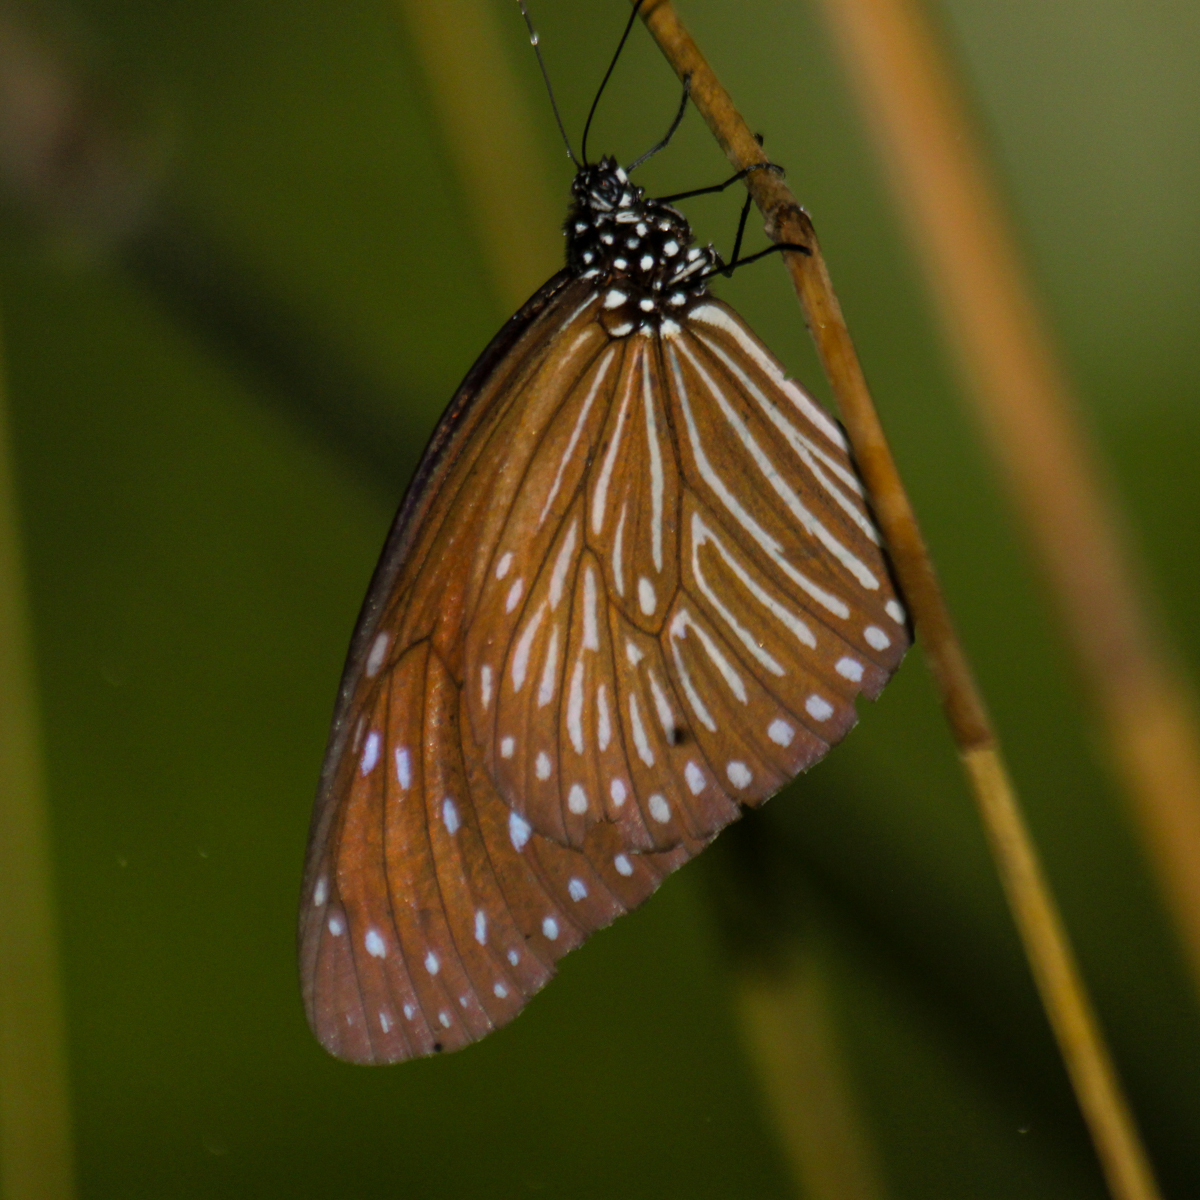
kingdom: Animalia
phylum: Arthropoda
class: Insecta
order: Lepidoptera
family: Nymphalidae
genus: Euploea
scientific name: Euploea mulciber
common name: Striped blue crow butterfly
